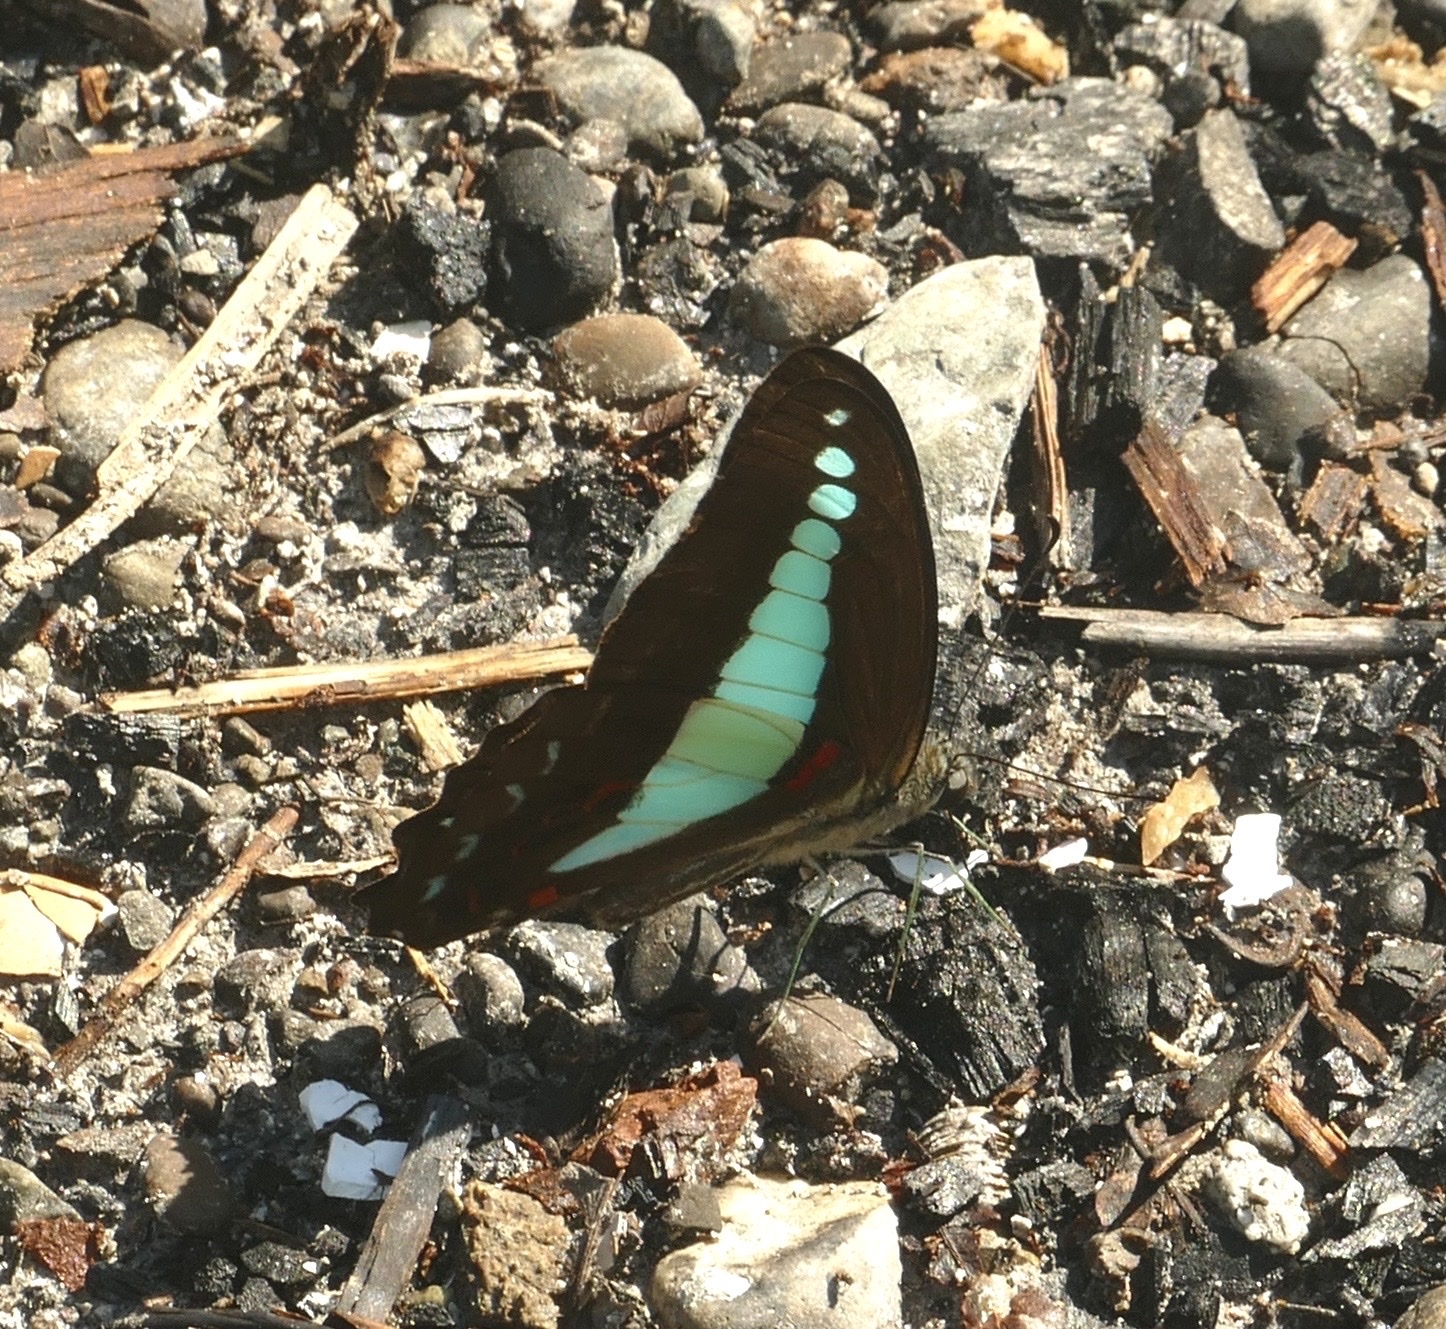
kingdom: Animalia
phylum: Arthropoda
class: Insecta
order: Lepidoptera
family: Papilionidae
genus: Graphium
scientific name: Graphium
